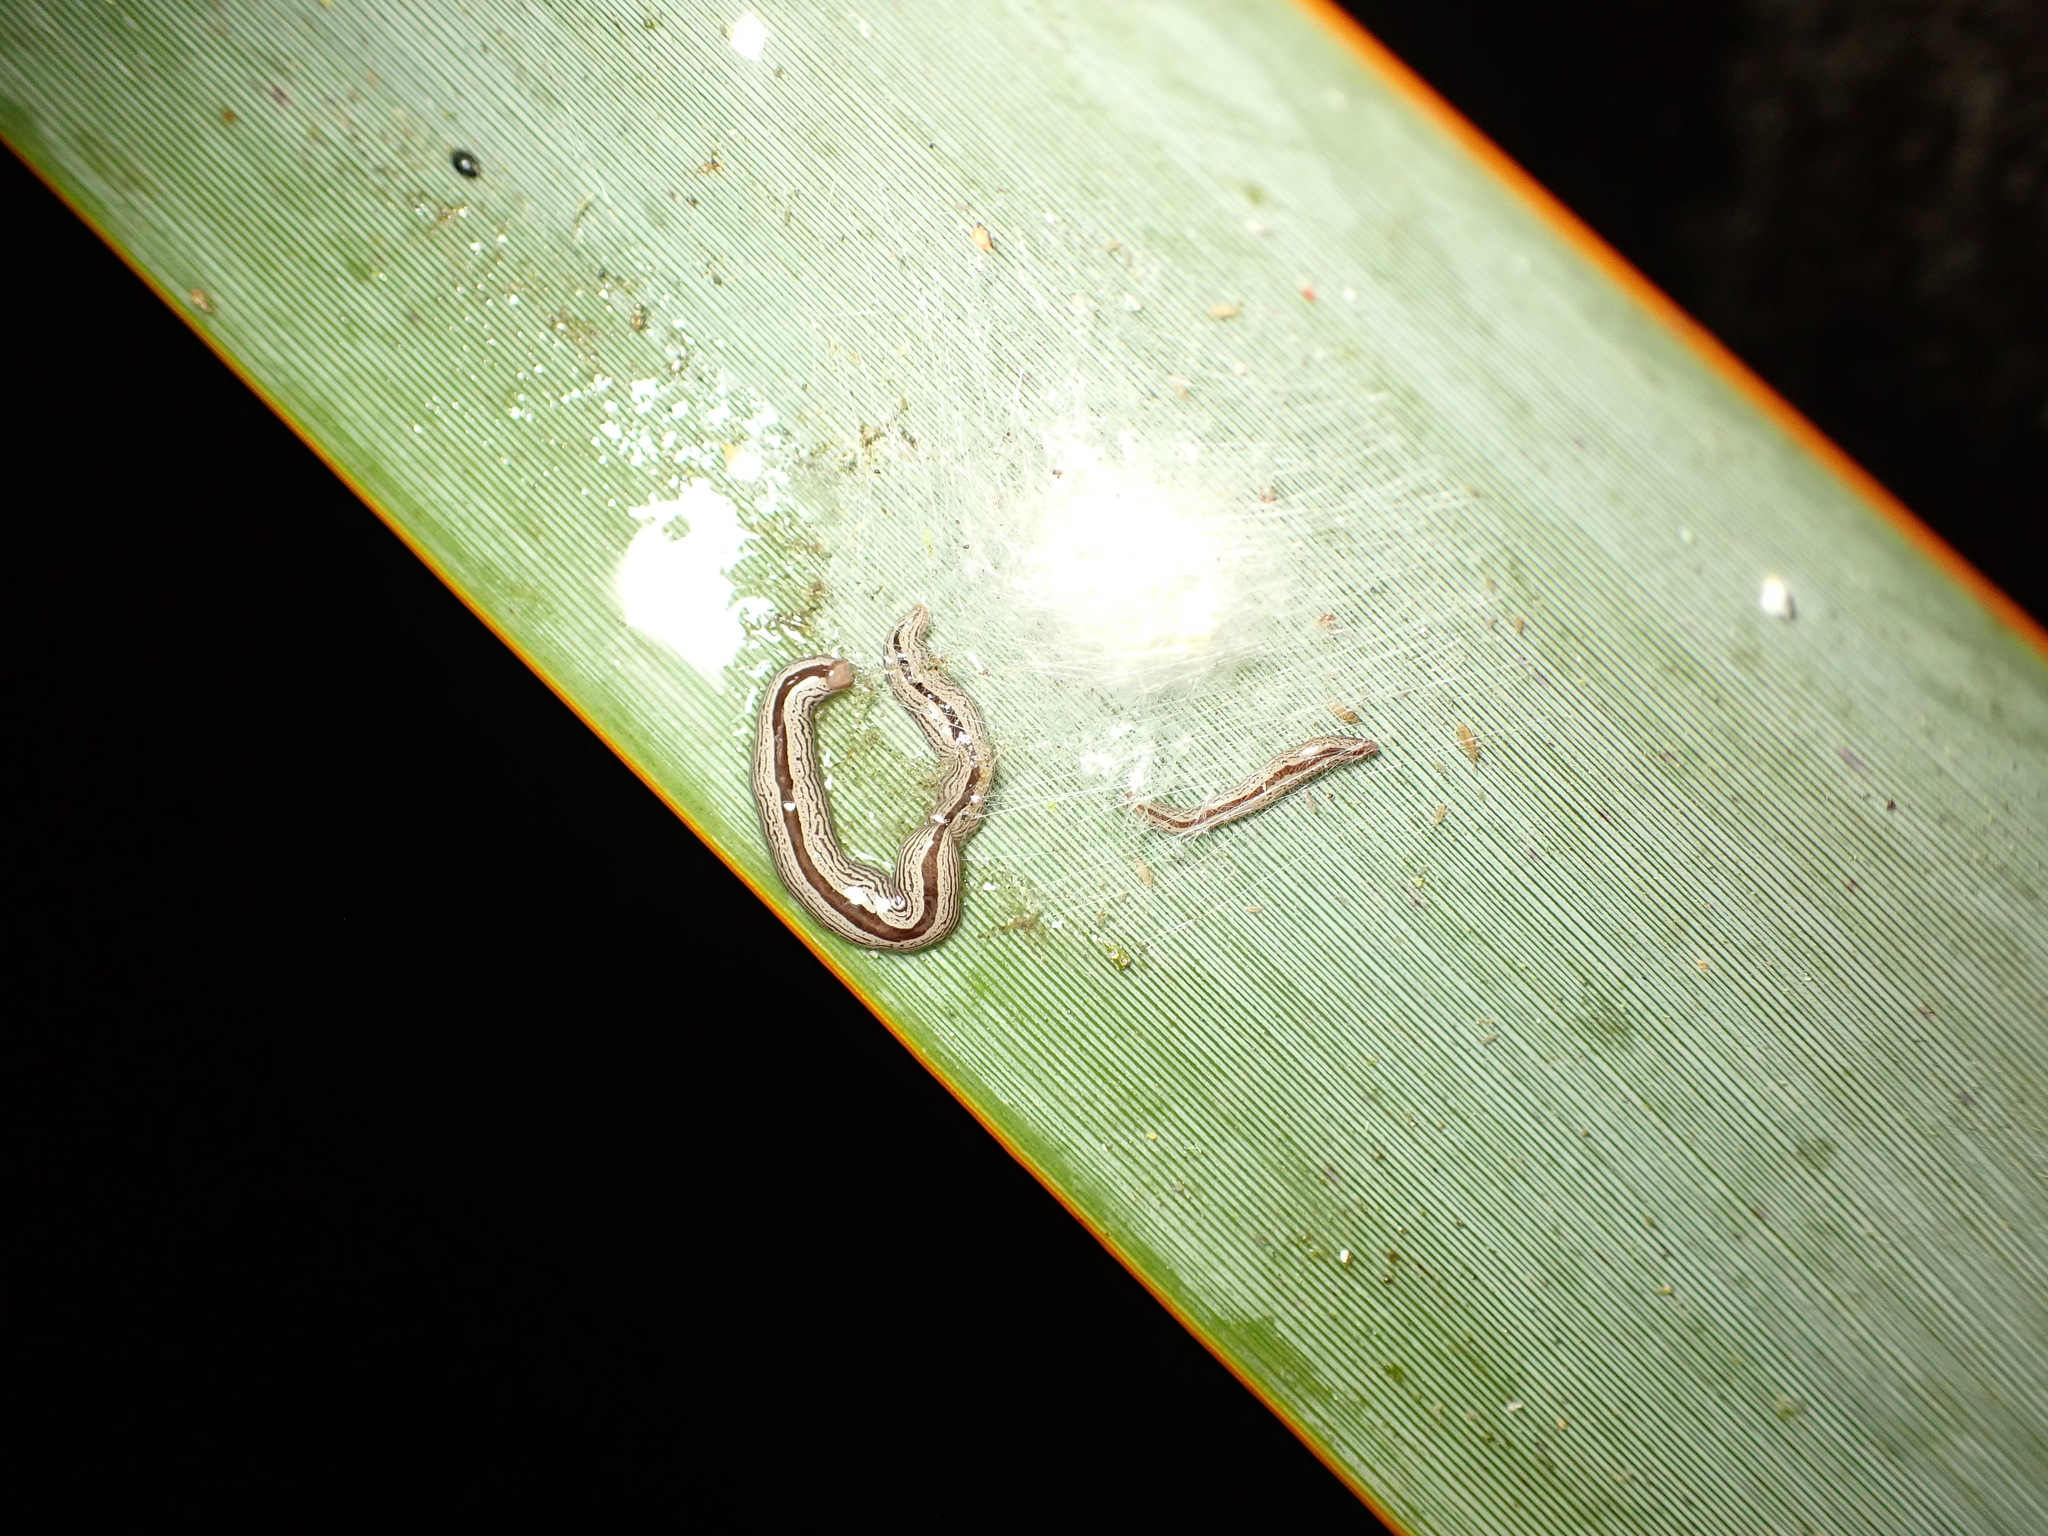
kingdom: Animalia
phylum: Platyhelminthes
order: Tricladida
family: Geoplanidae
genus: Artioposthia
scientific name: Artioposthia exulans
